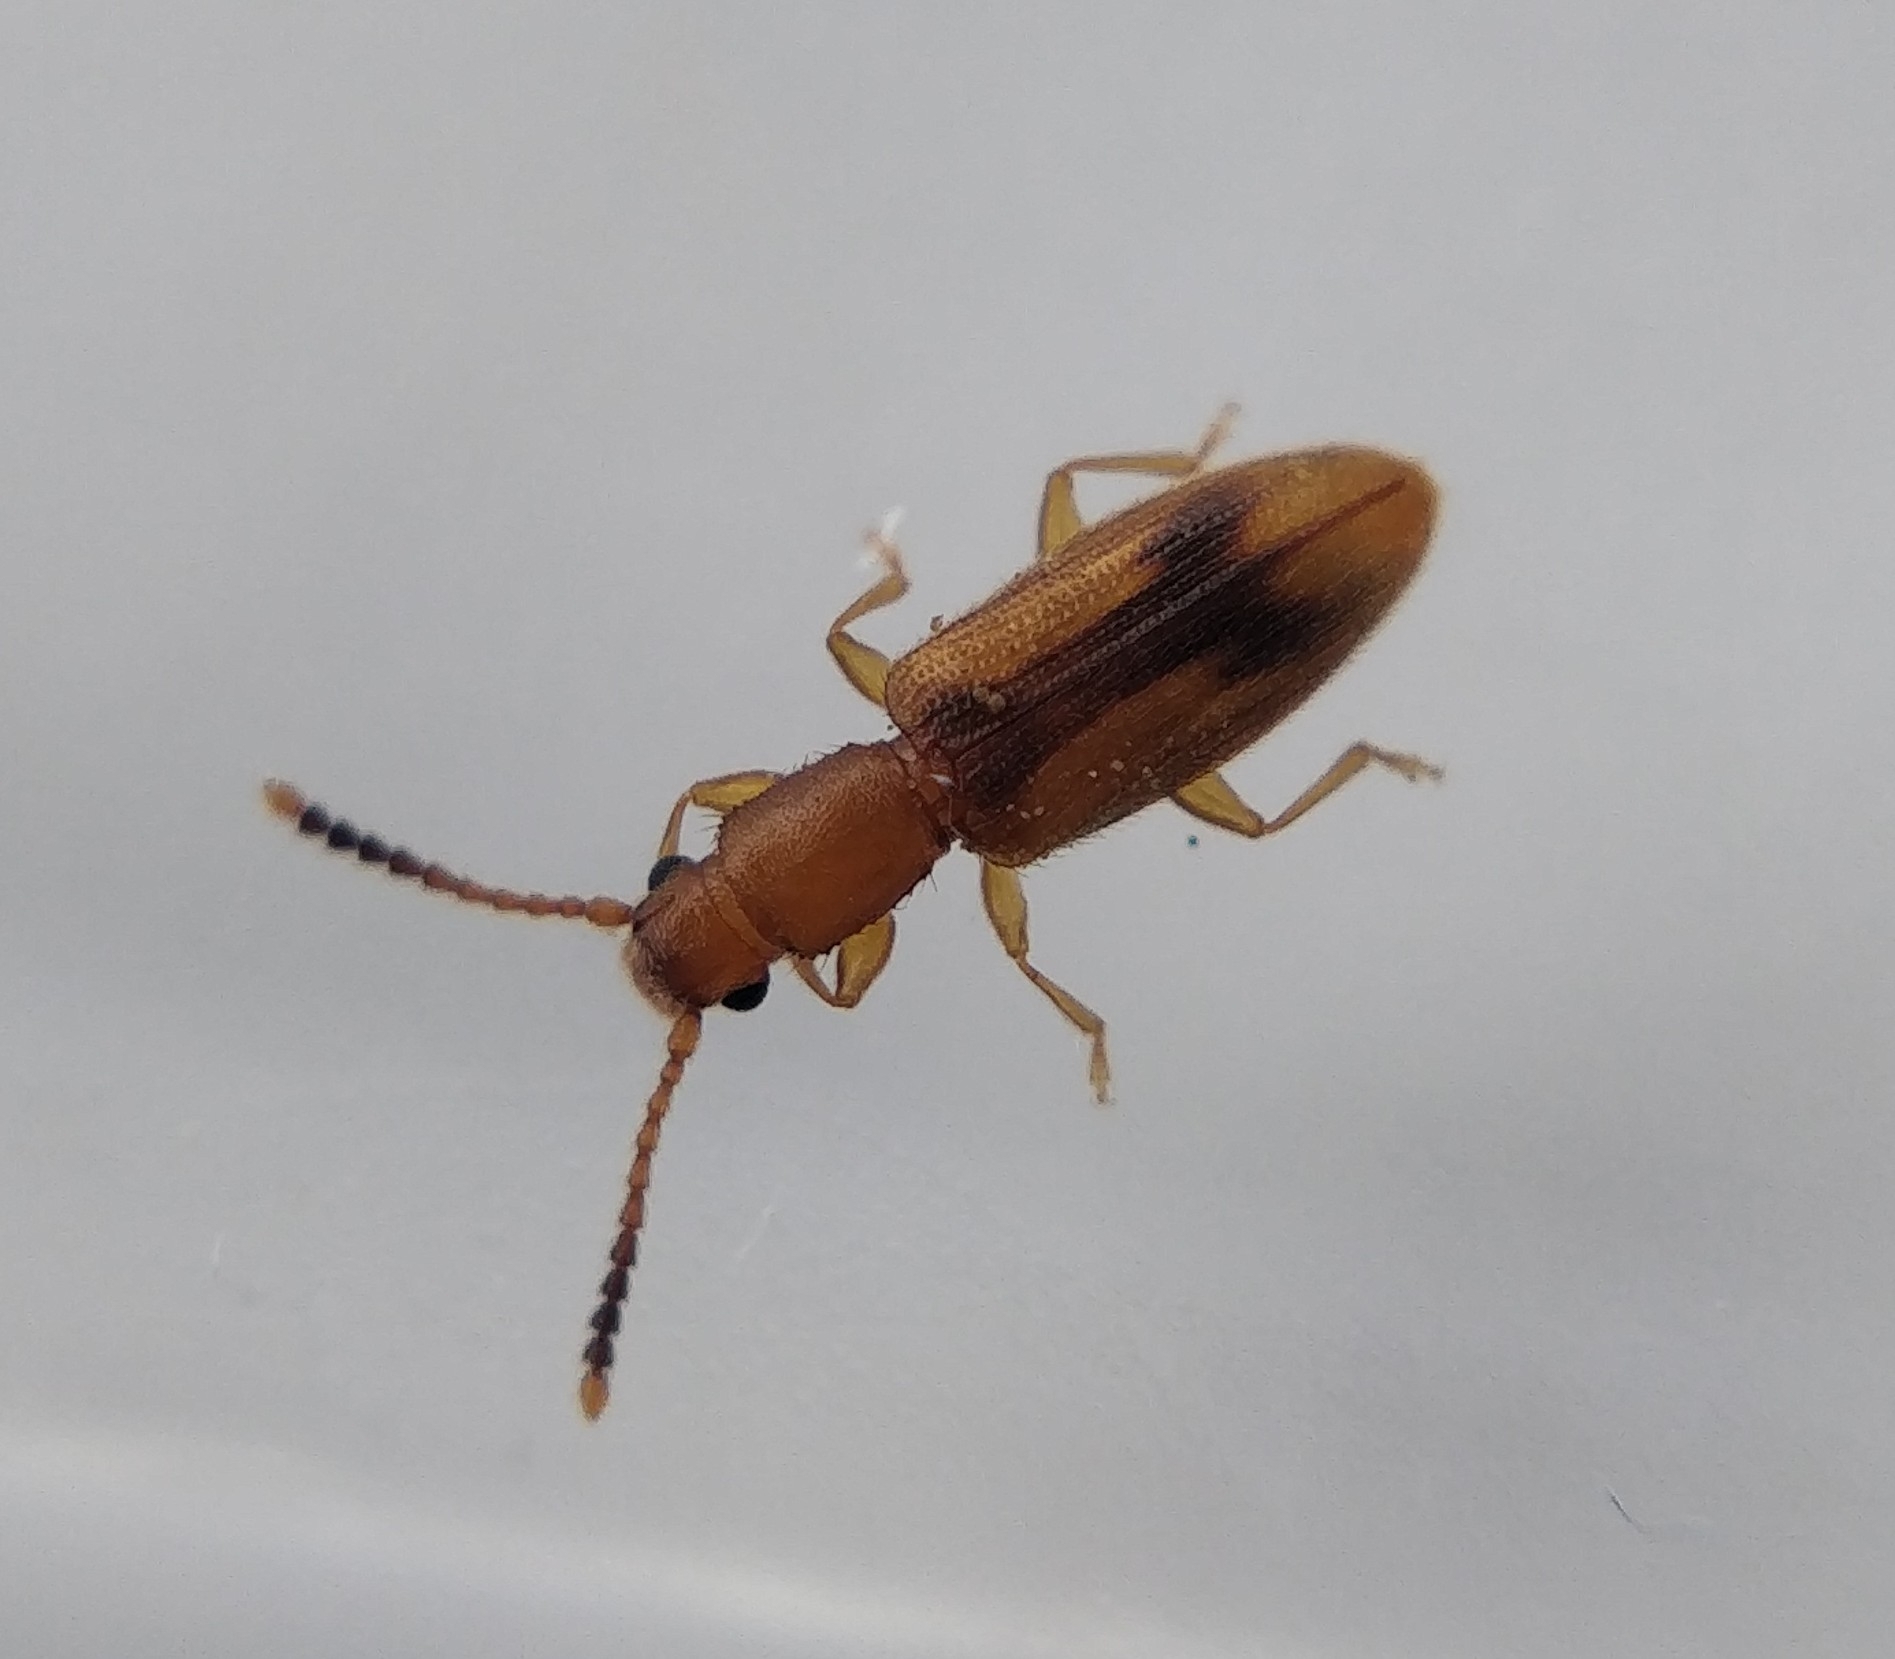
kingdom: Animalia
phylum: Arthropoda
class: Insecta
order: Coleoptera
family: Silvanidae
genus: Cryptamorpha
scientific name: Cryptamorpha desjardinsi
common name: Cryptamorpha
